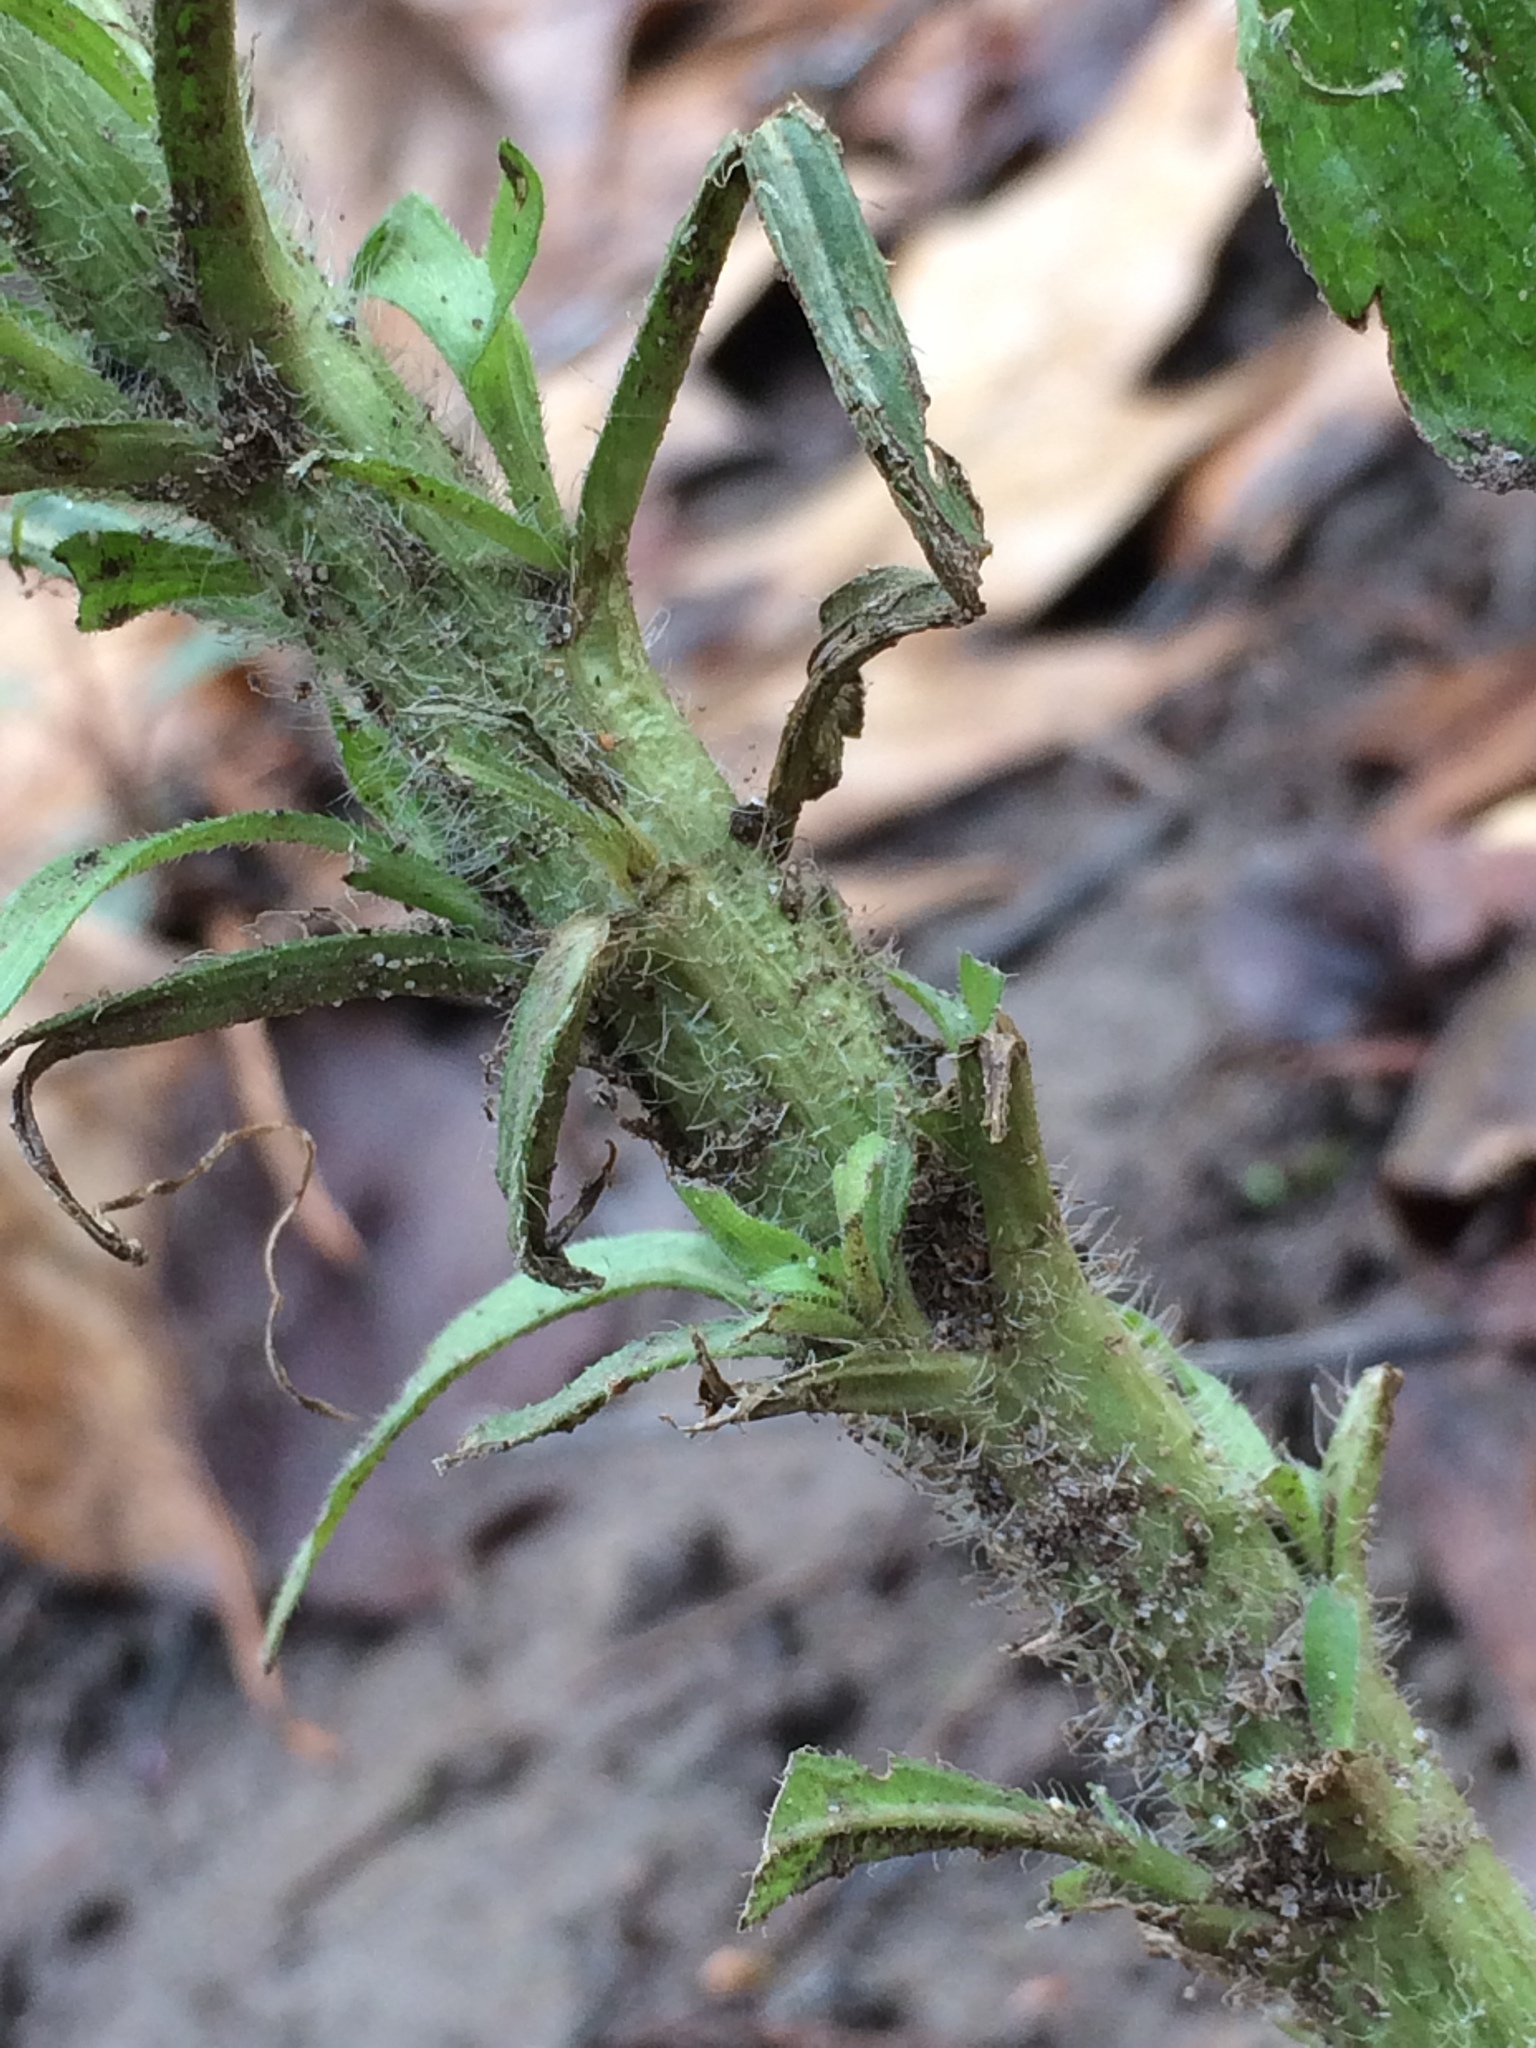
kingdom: Plantae
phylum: Tracheophyta
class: Magnoliopsida
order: Asterales
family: Asteraceae
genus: Erigeron
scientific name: Erigeron canadensis
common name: Canadian fleabane
